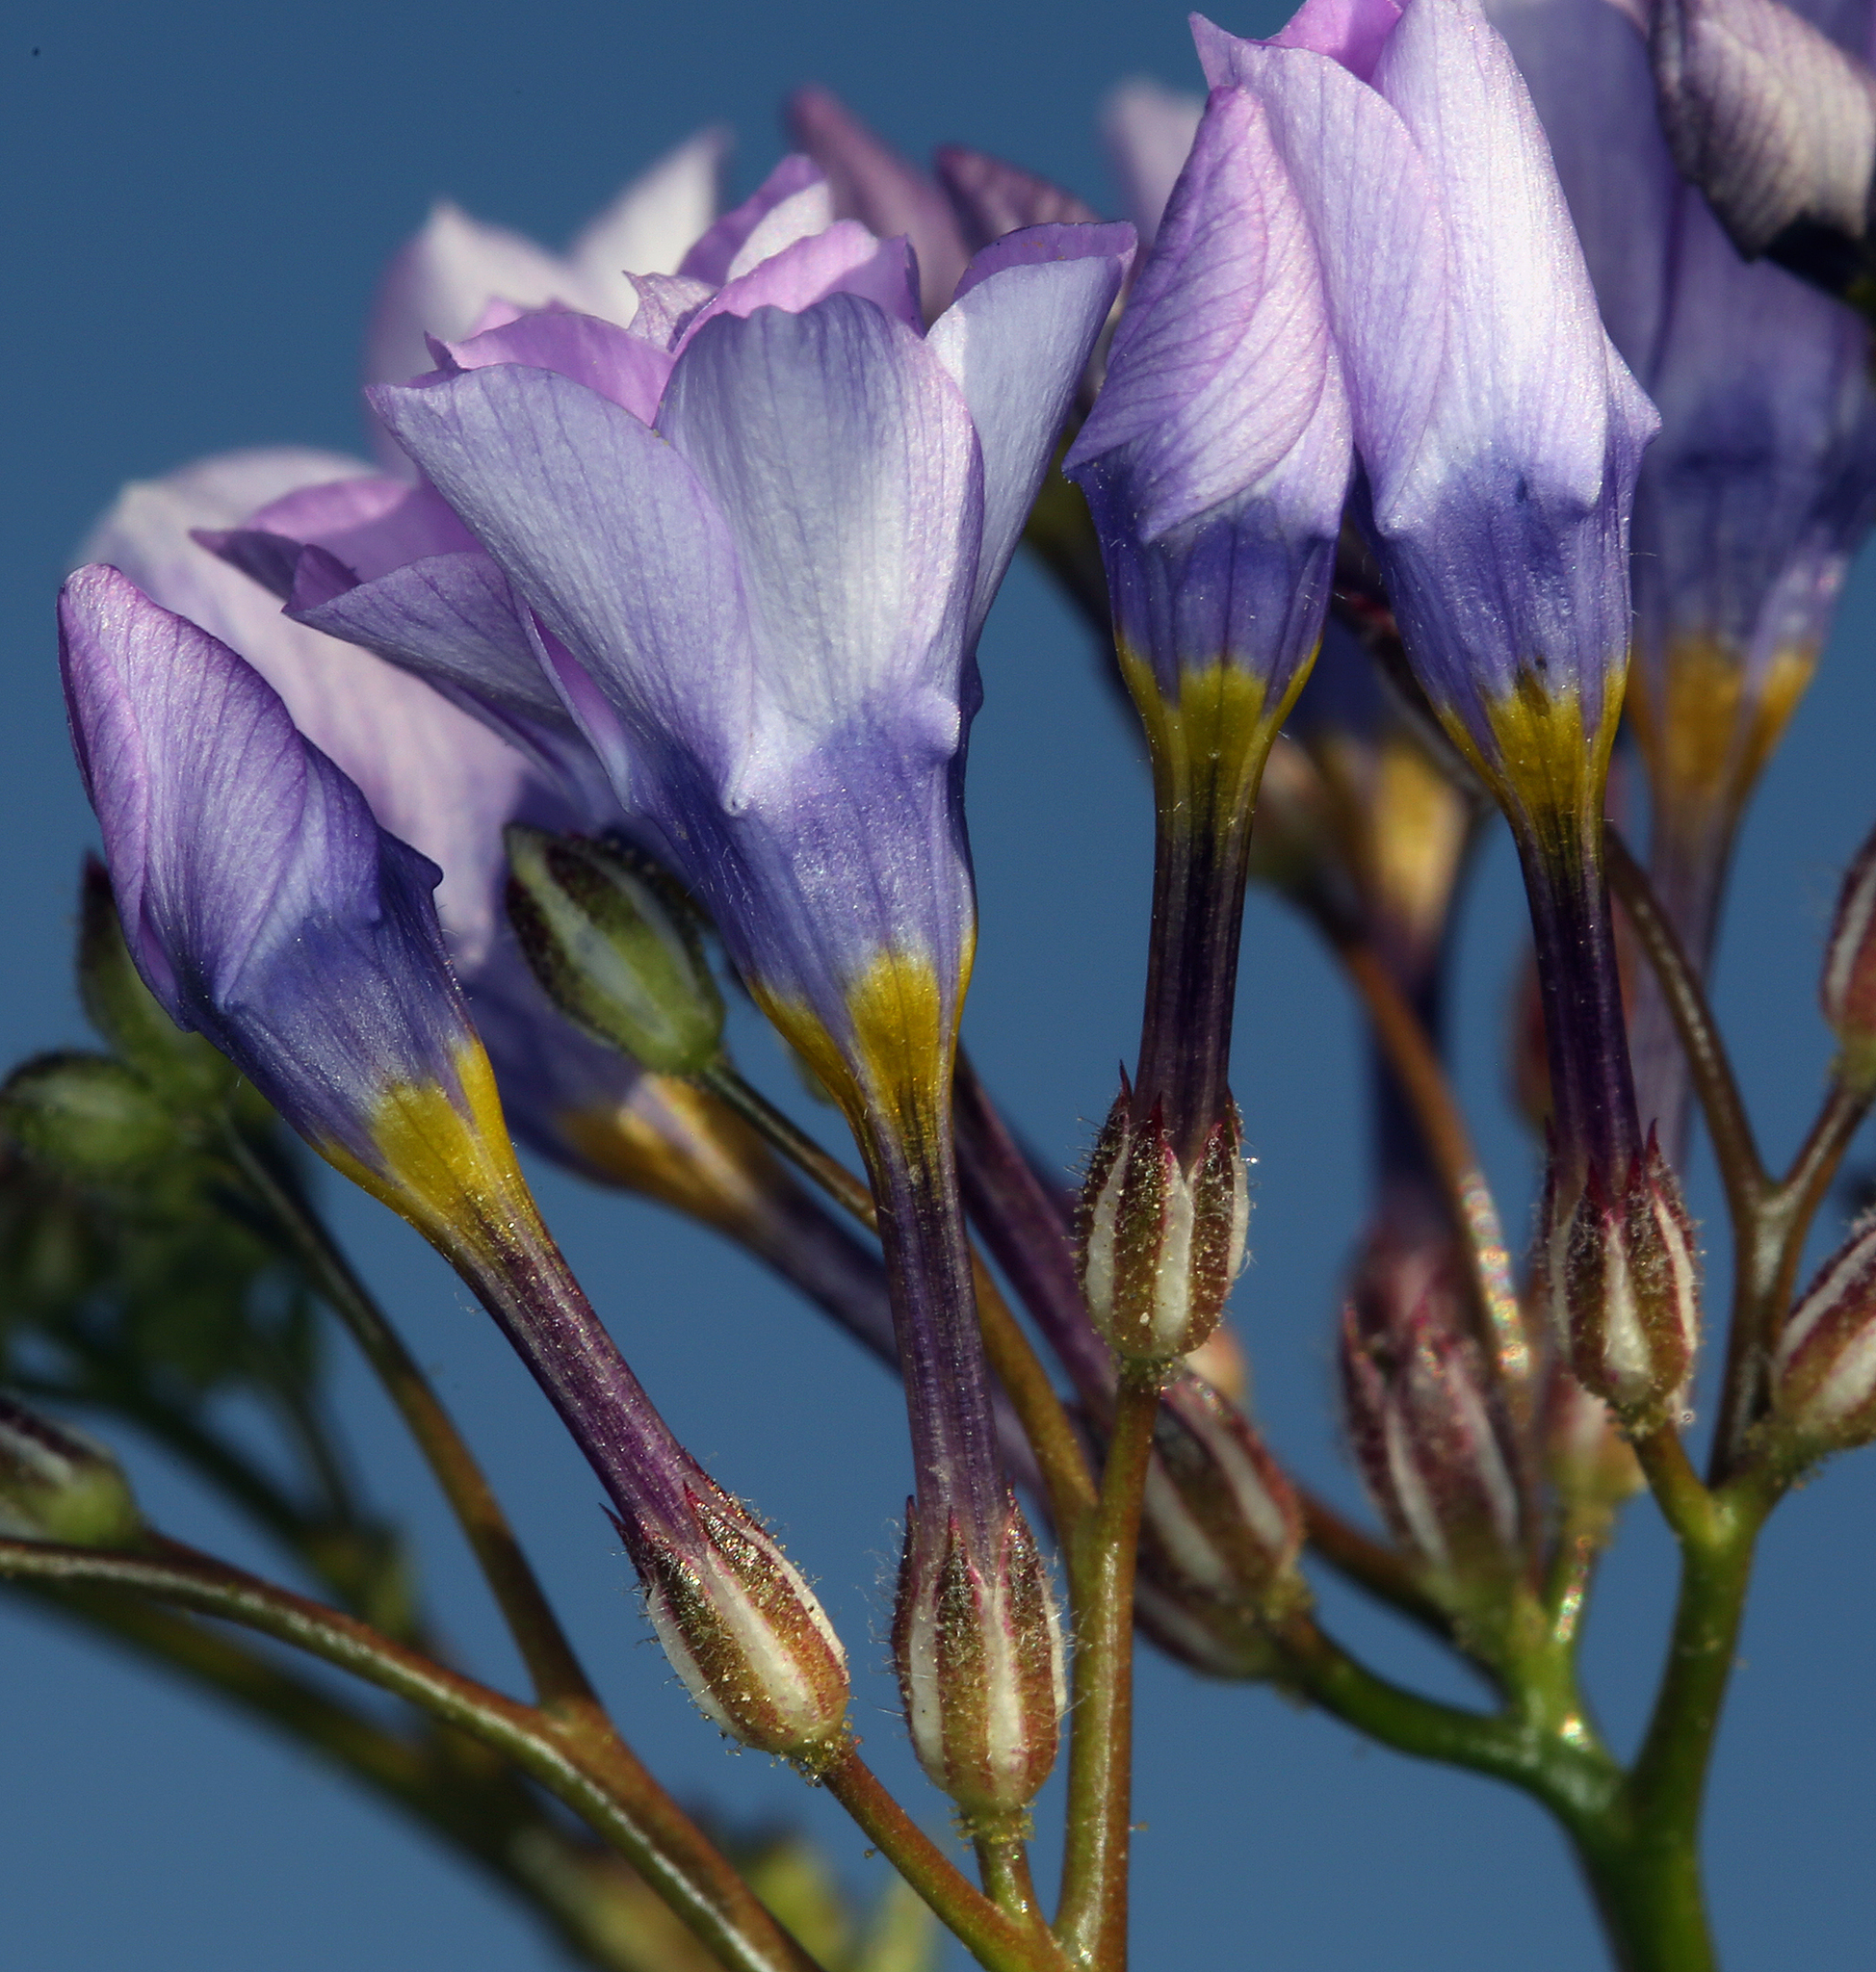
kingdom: Plantae
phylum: Tracheophyta
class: Magnoliopsida
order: Ericales
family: Polemoniaceae
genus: Gilia
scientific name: Gilia cana
